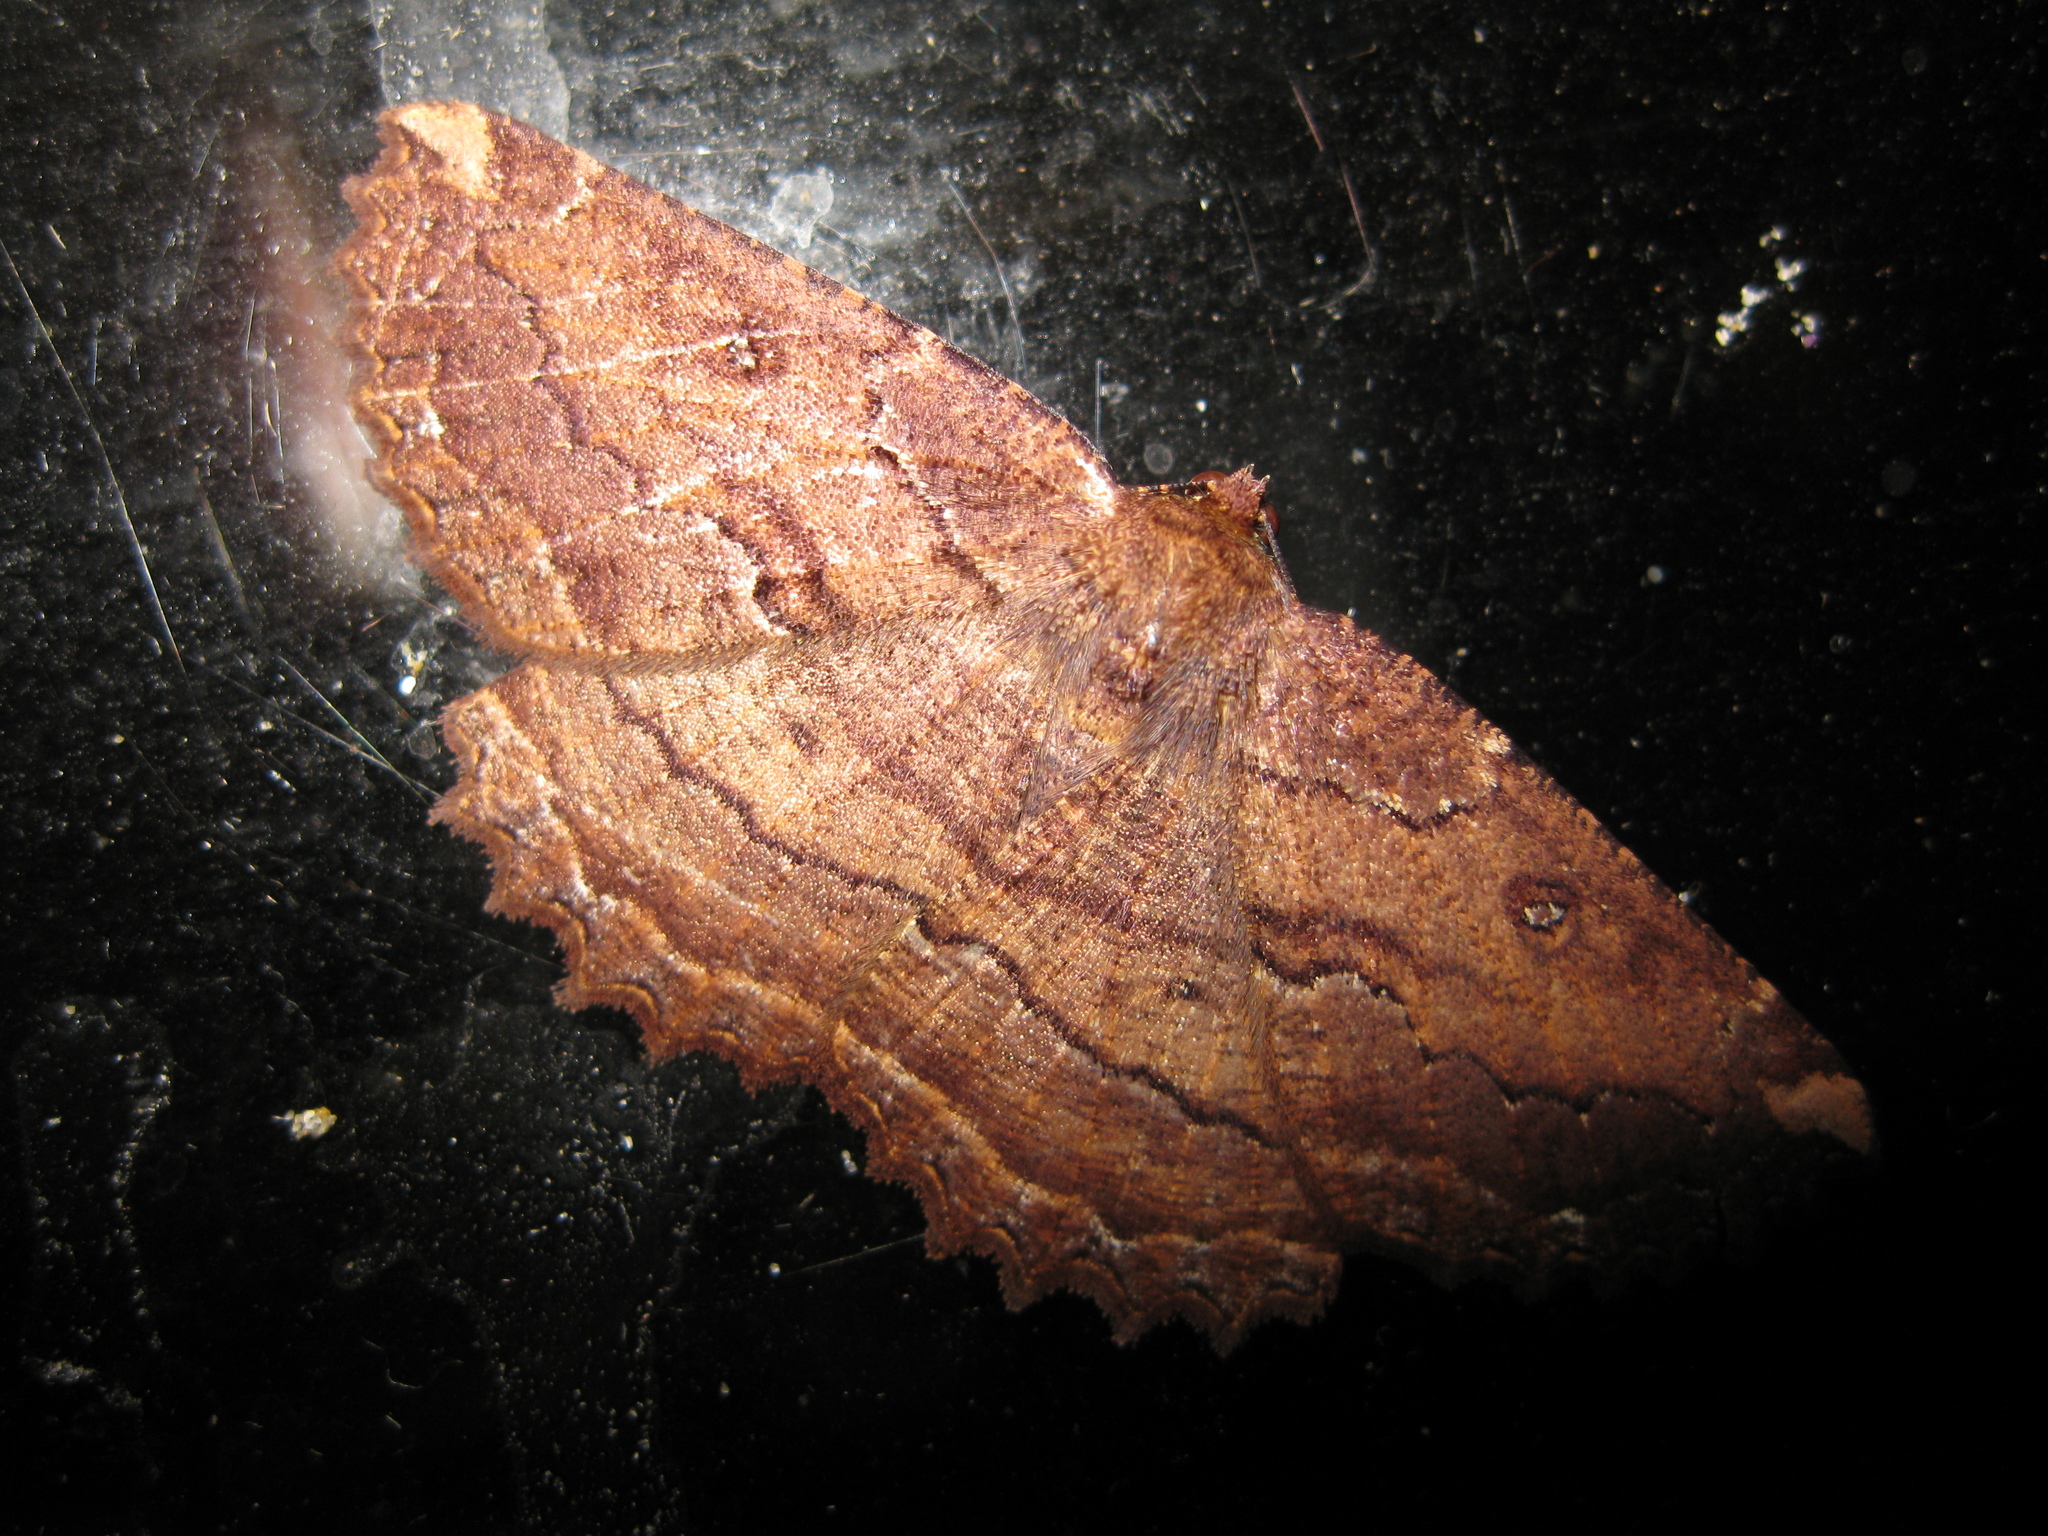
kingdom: Animalia
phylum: Arthropoda
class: Insecta
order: Lepidoptera
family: Geometridae
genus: Gellonia
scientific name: Gellonia dejectaria
